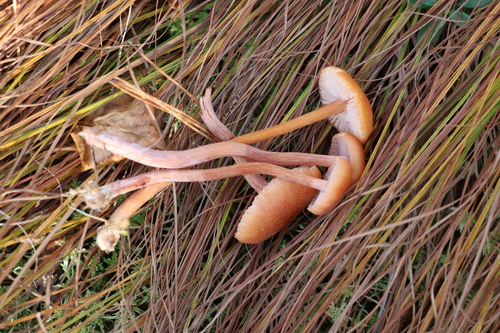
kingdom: Fungi
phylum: Basidiomycota
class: Agaricomycetes
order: Agaricales
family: Hydnangiaceae
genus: Laccaria
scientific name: Laccaria laccata
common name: Deceiver
